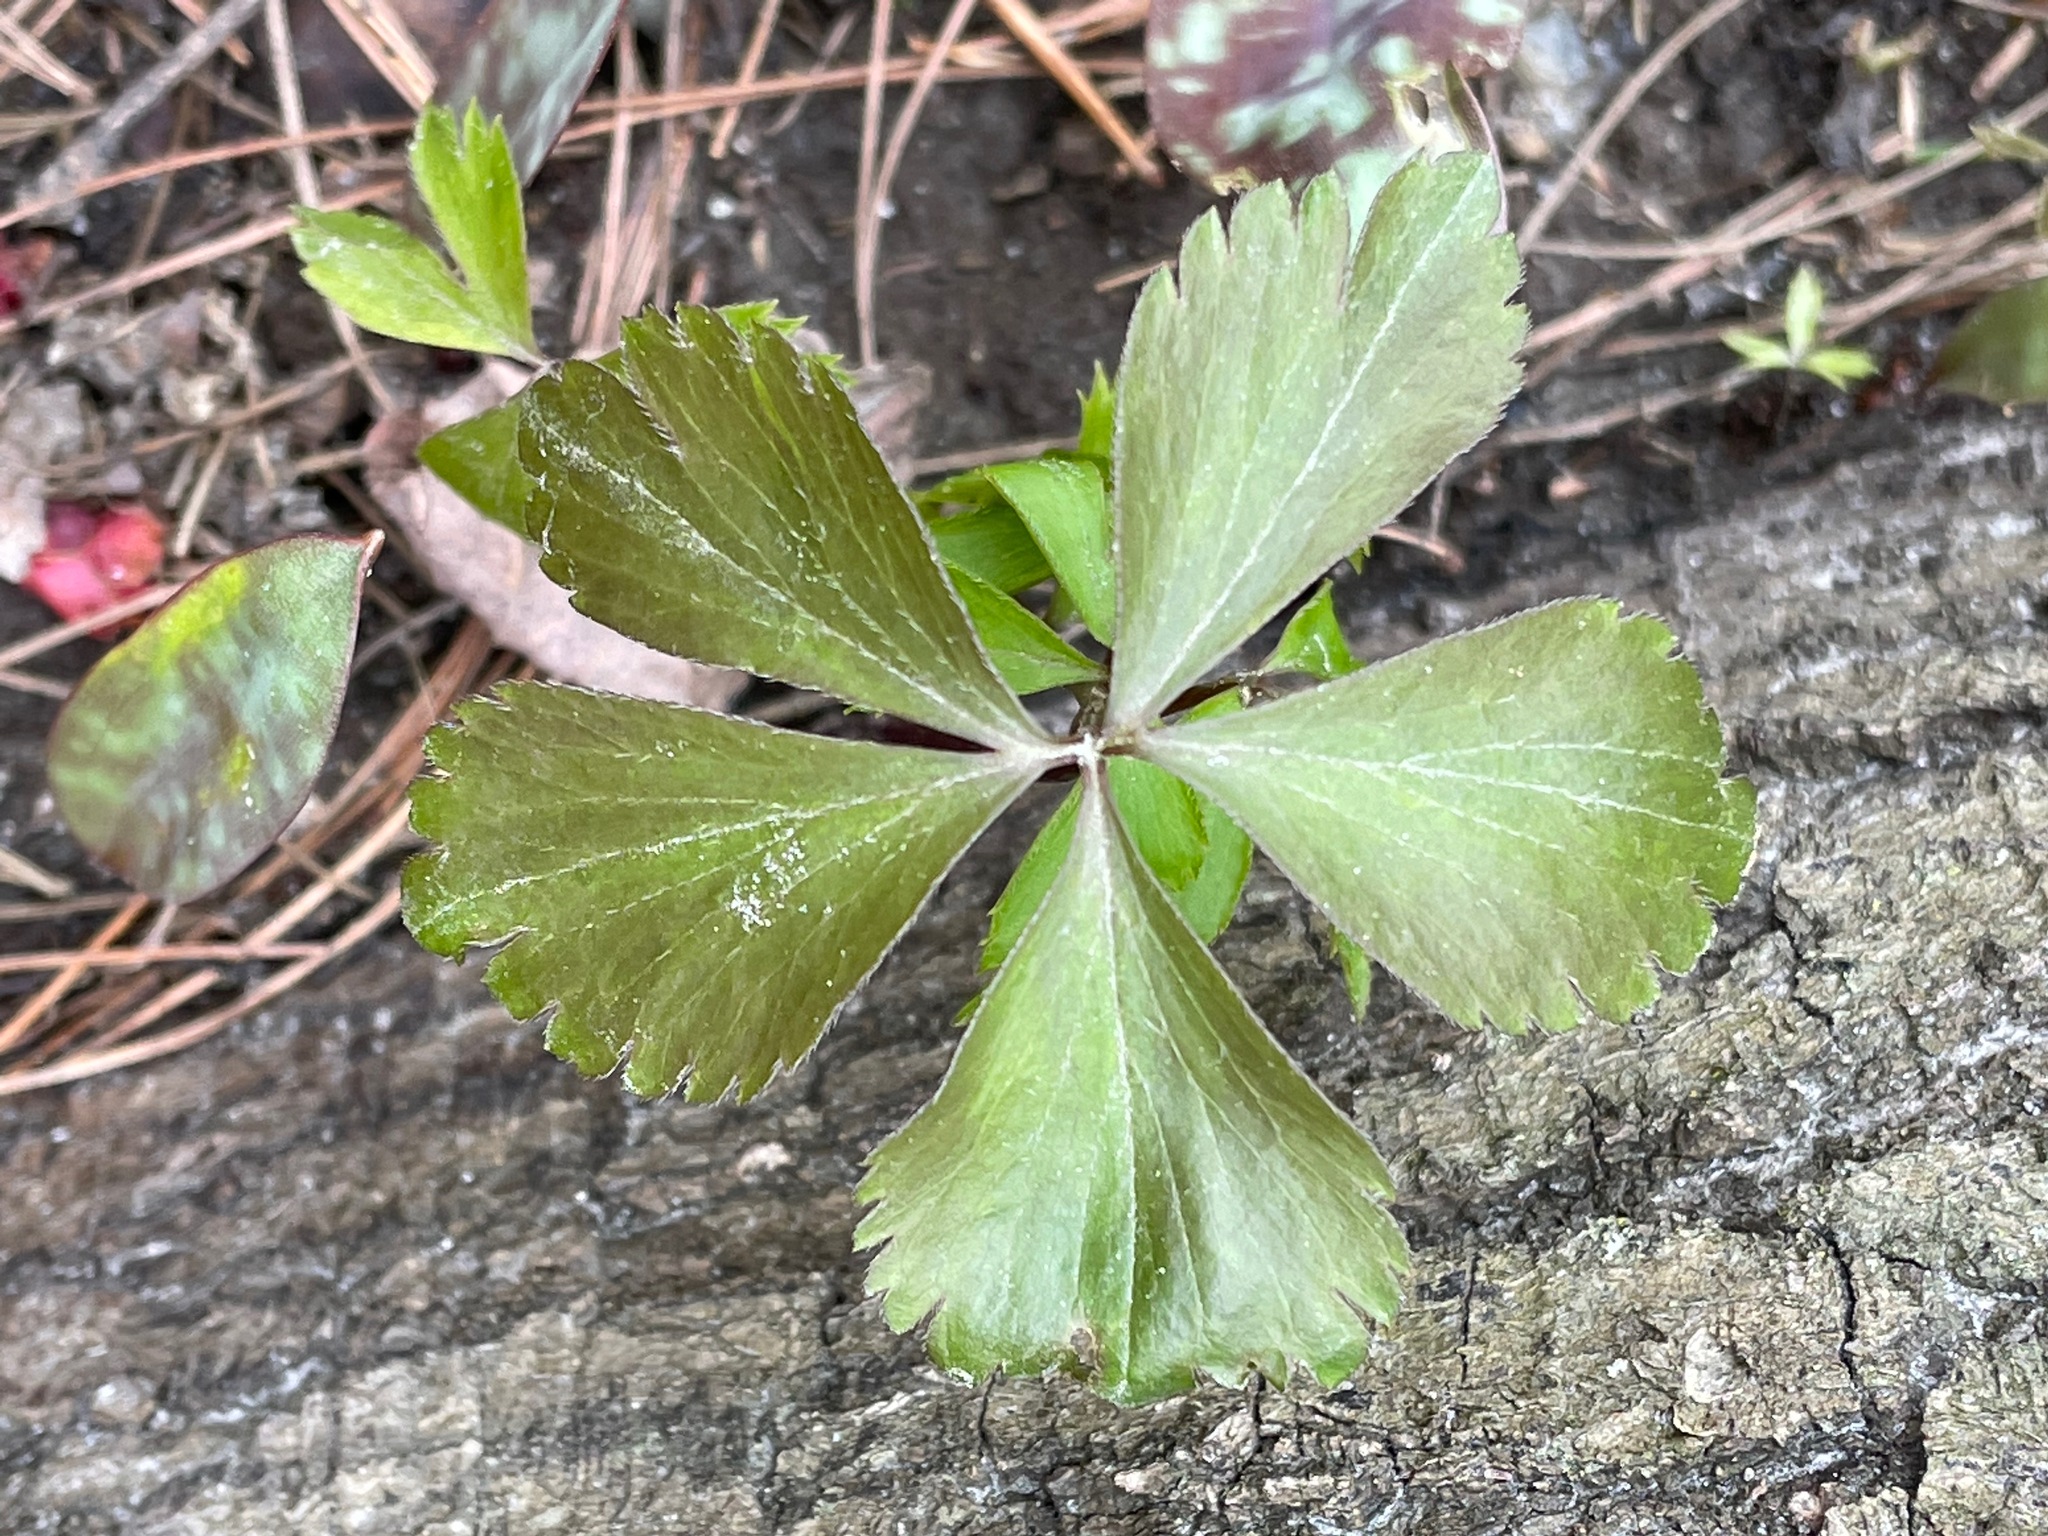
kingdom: Plantae
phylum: Tracheophyta
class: Magnoliopsida
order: Ranunculales
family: Ranunculaceae
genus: Anemone
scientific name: Anemone quinquefolia
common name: Wood anemone
